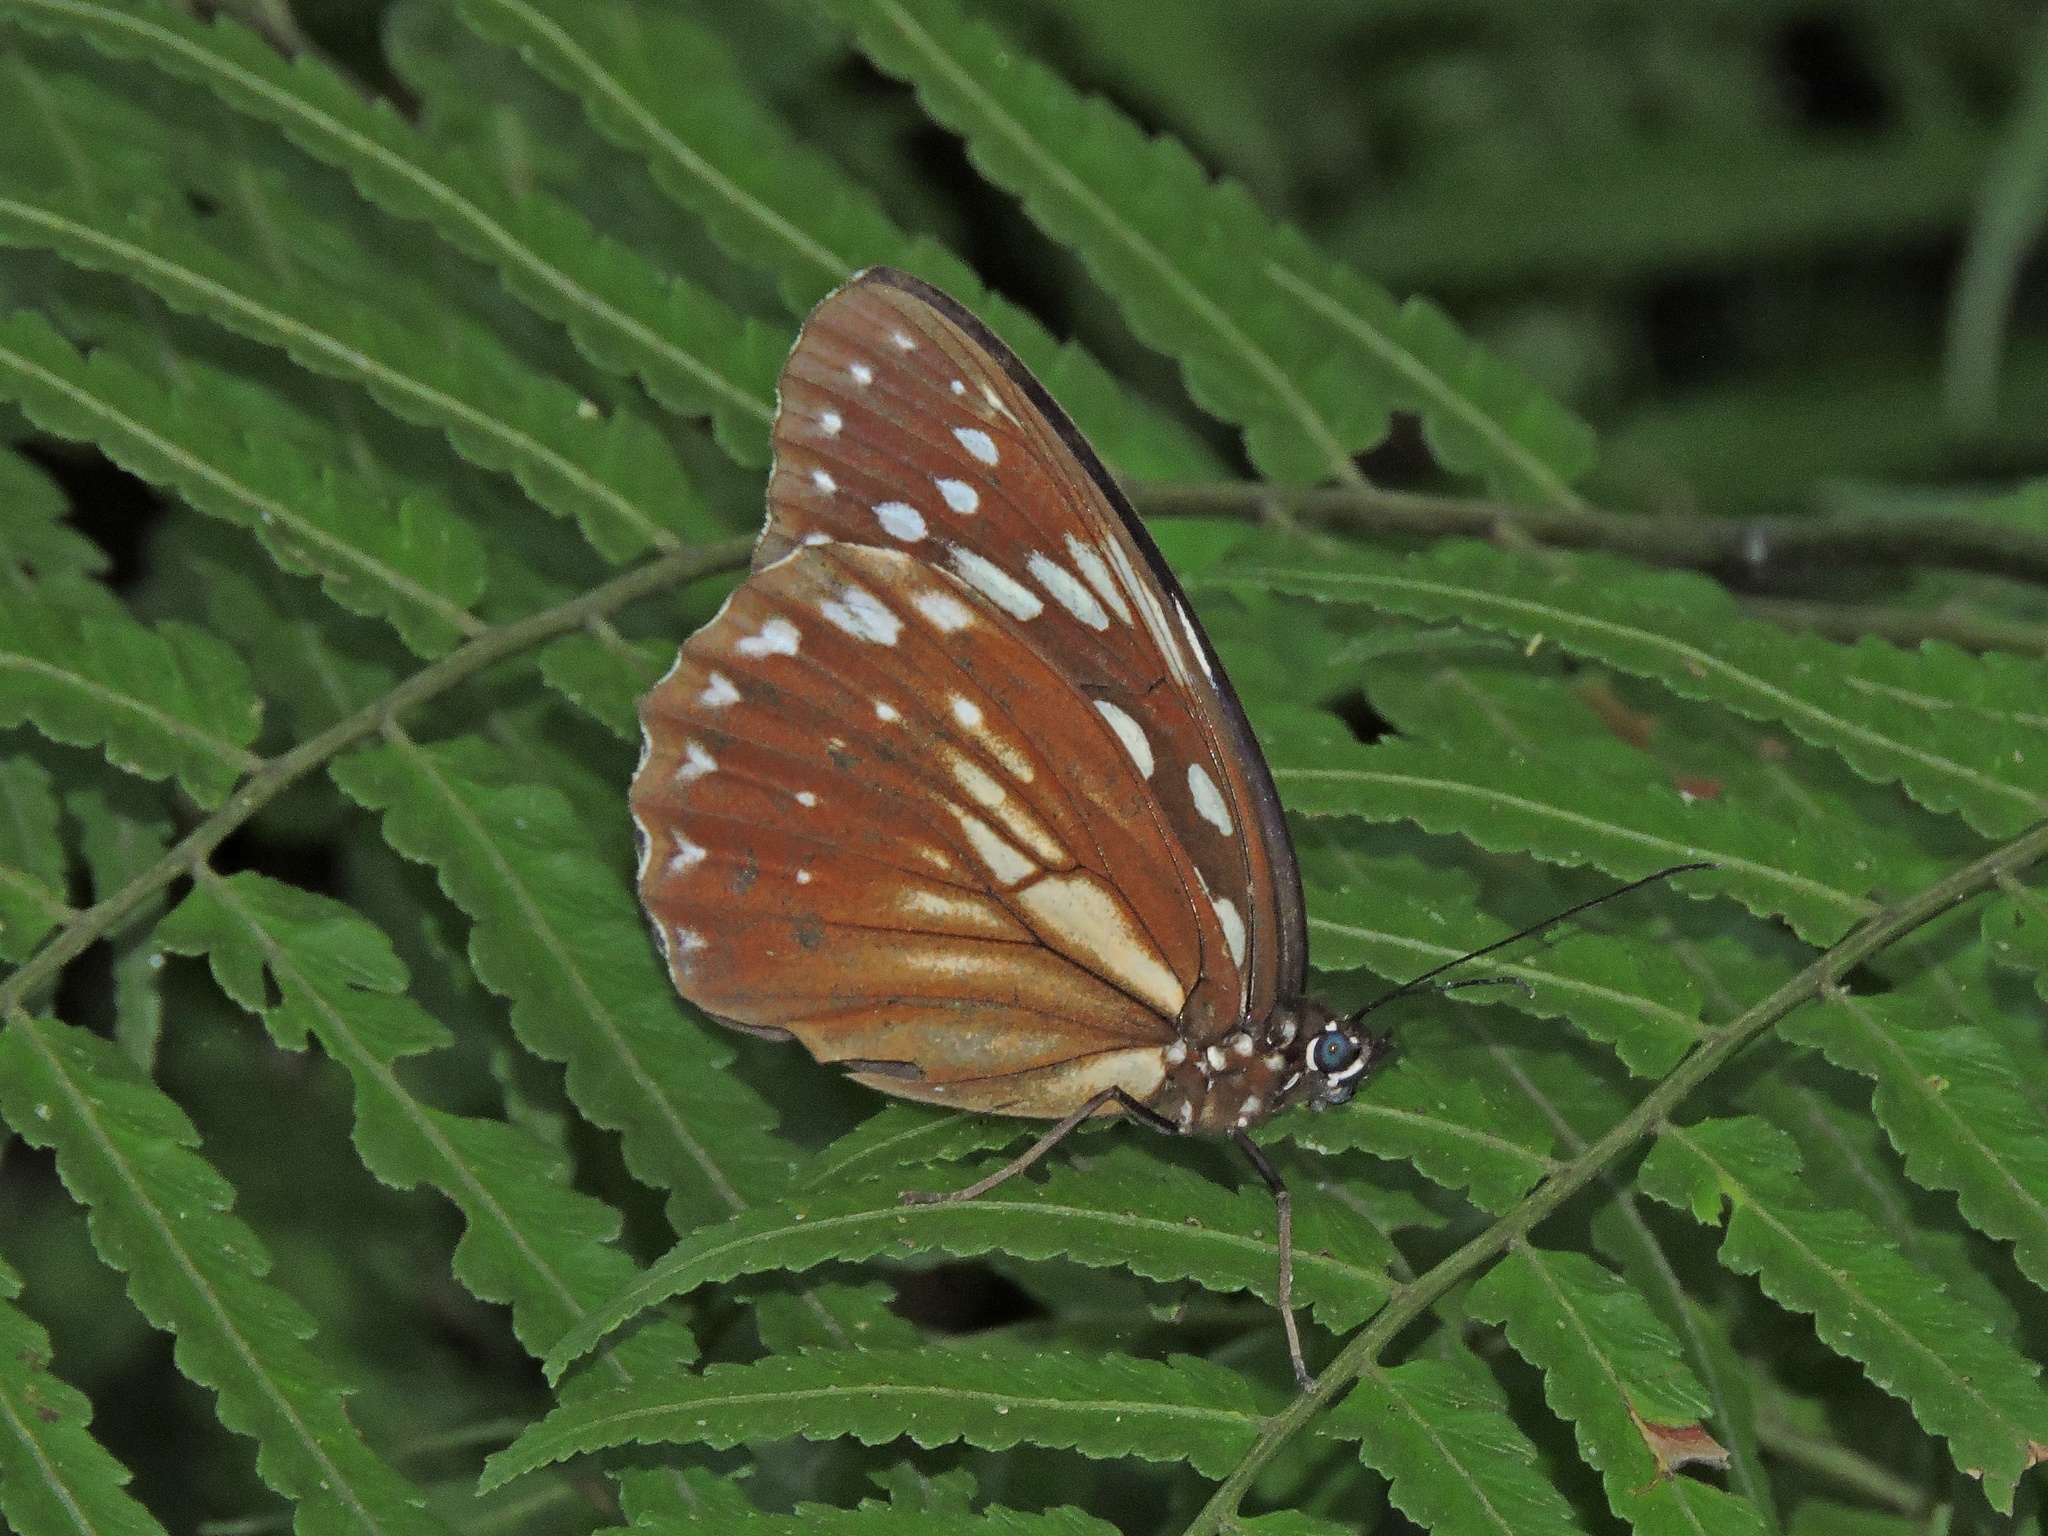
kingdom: Animalia
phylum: Arthropoda
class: Insecta
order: Lepidoptera
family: Nymphalidae
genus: Penthema
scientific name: Penthema formosanum
